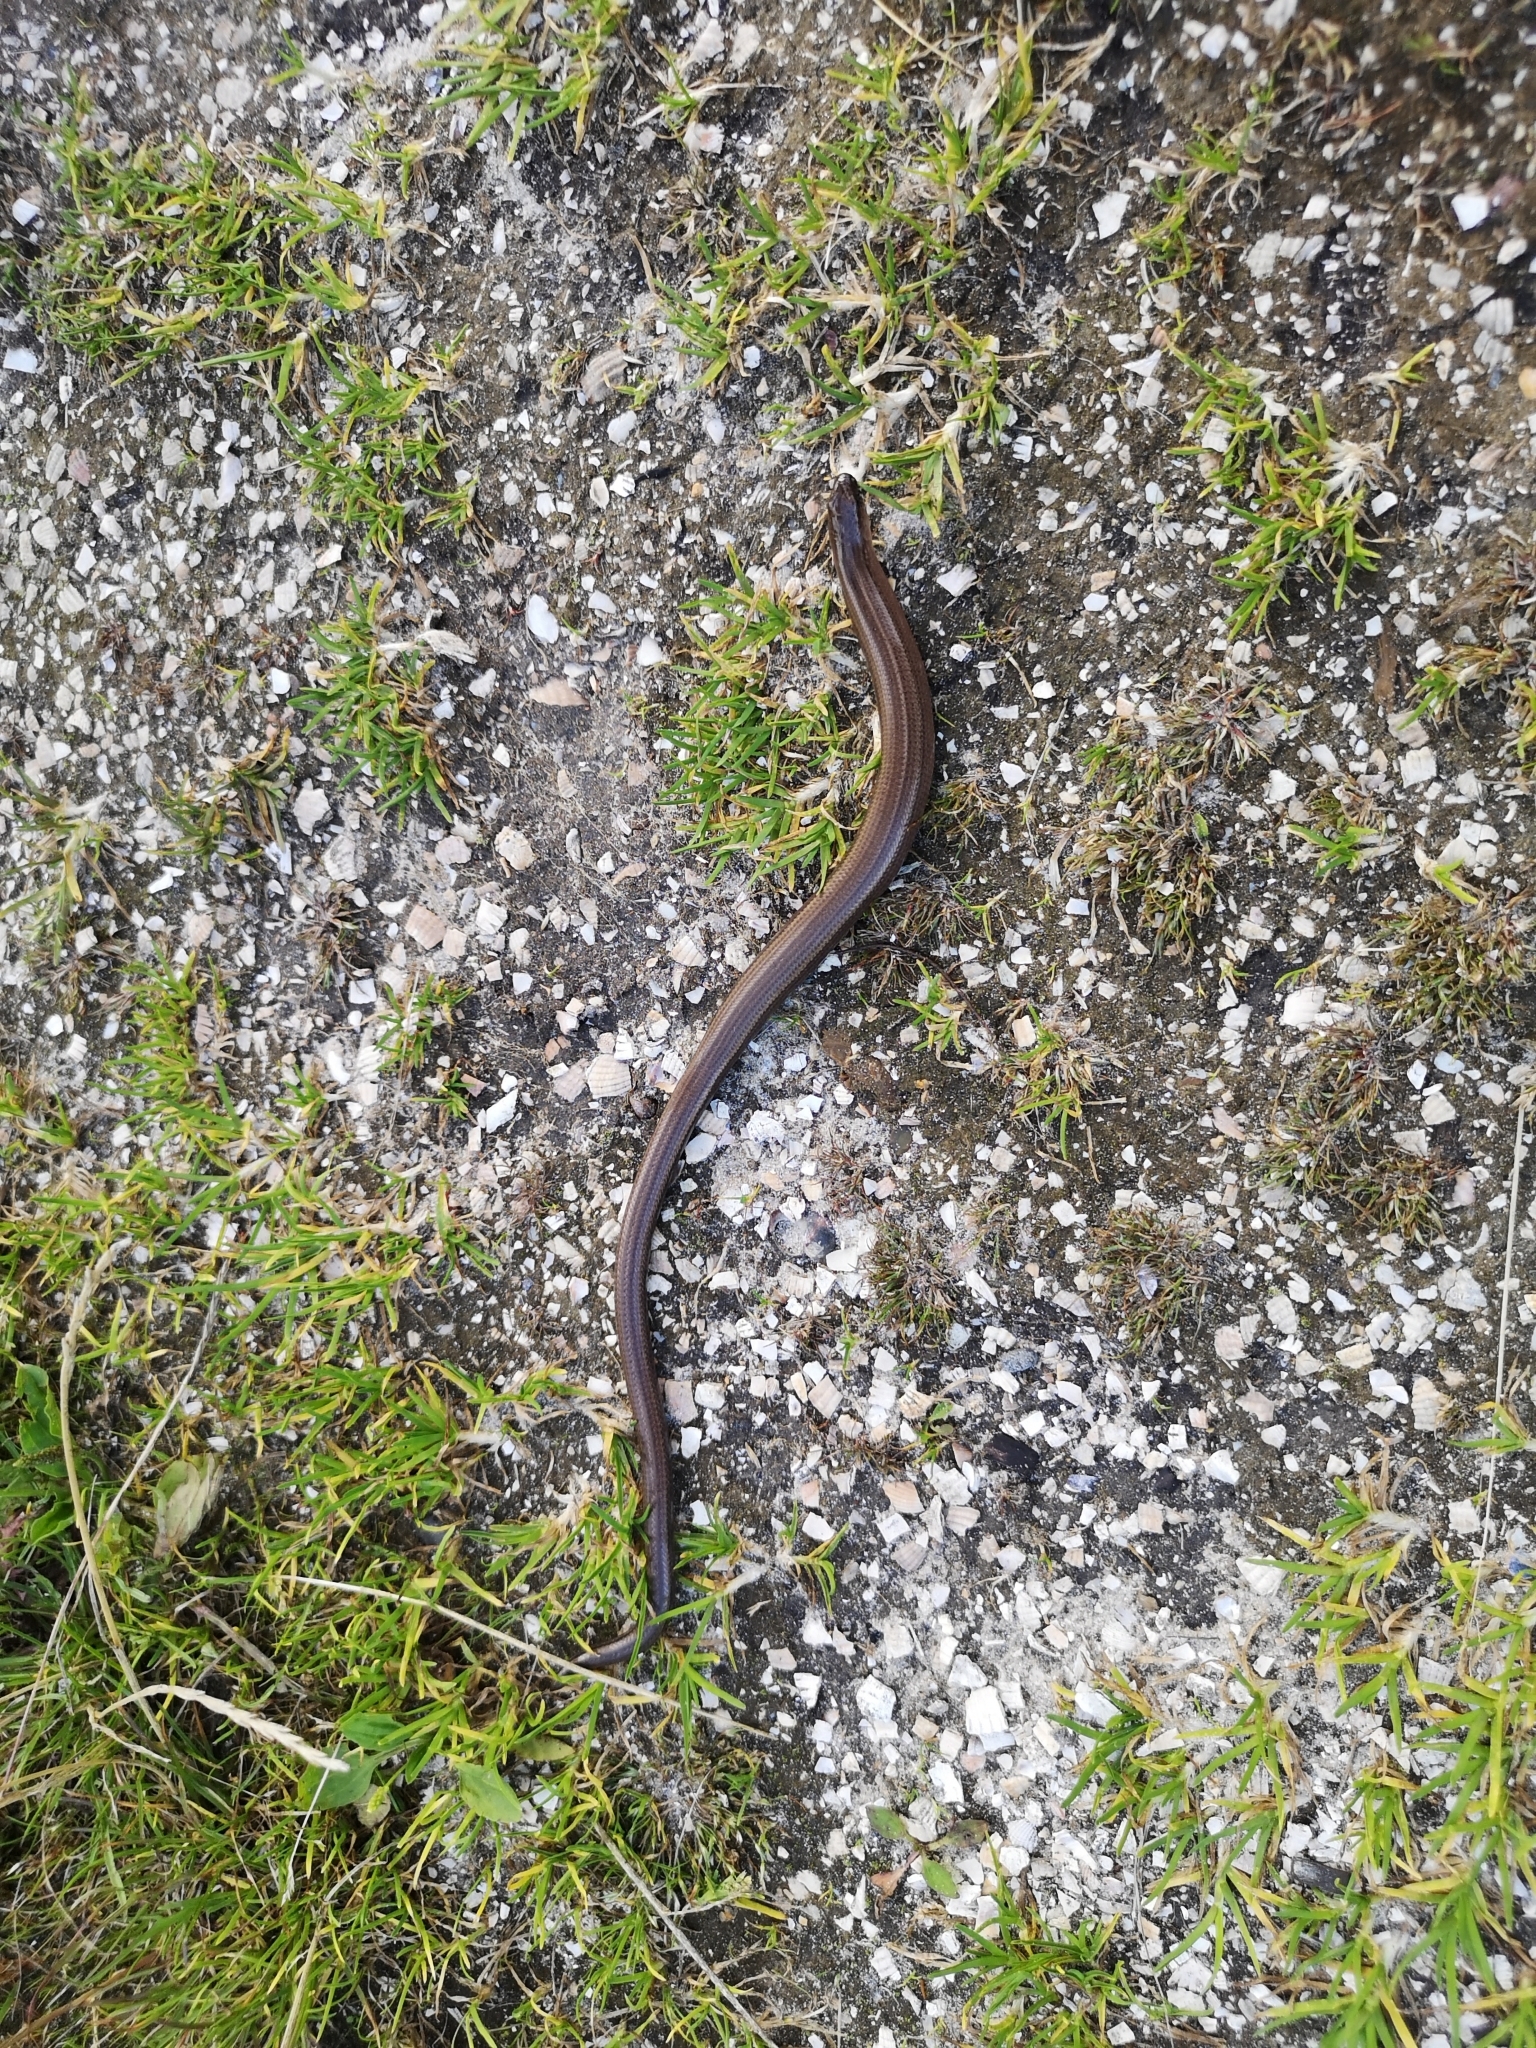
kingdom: Animalia
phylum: Chordata
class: Squamata
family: Anguidae
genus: Anguis
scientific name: Anguis fragilis
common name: Slow worm
